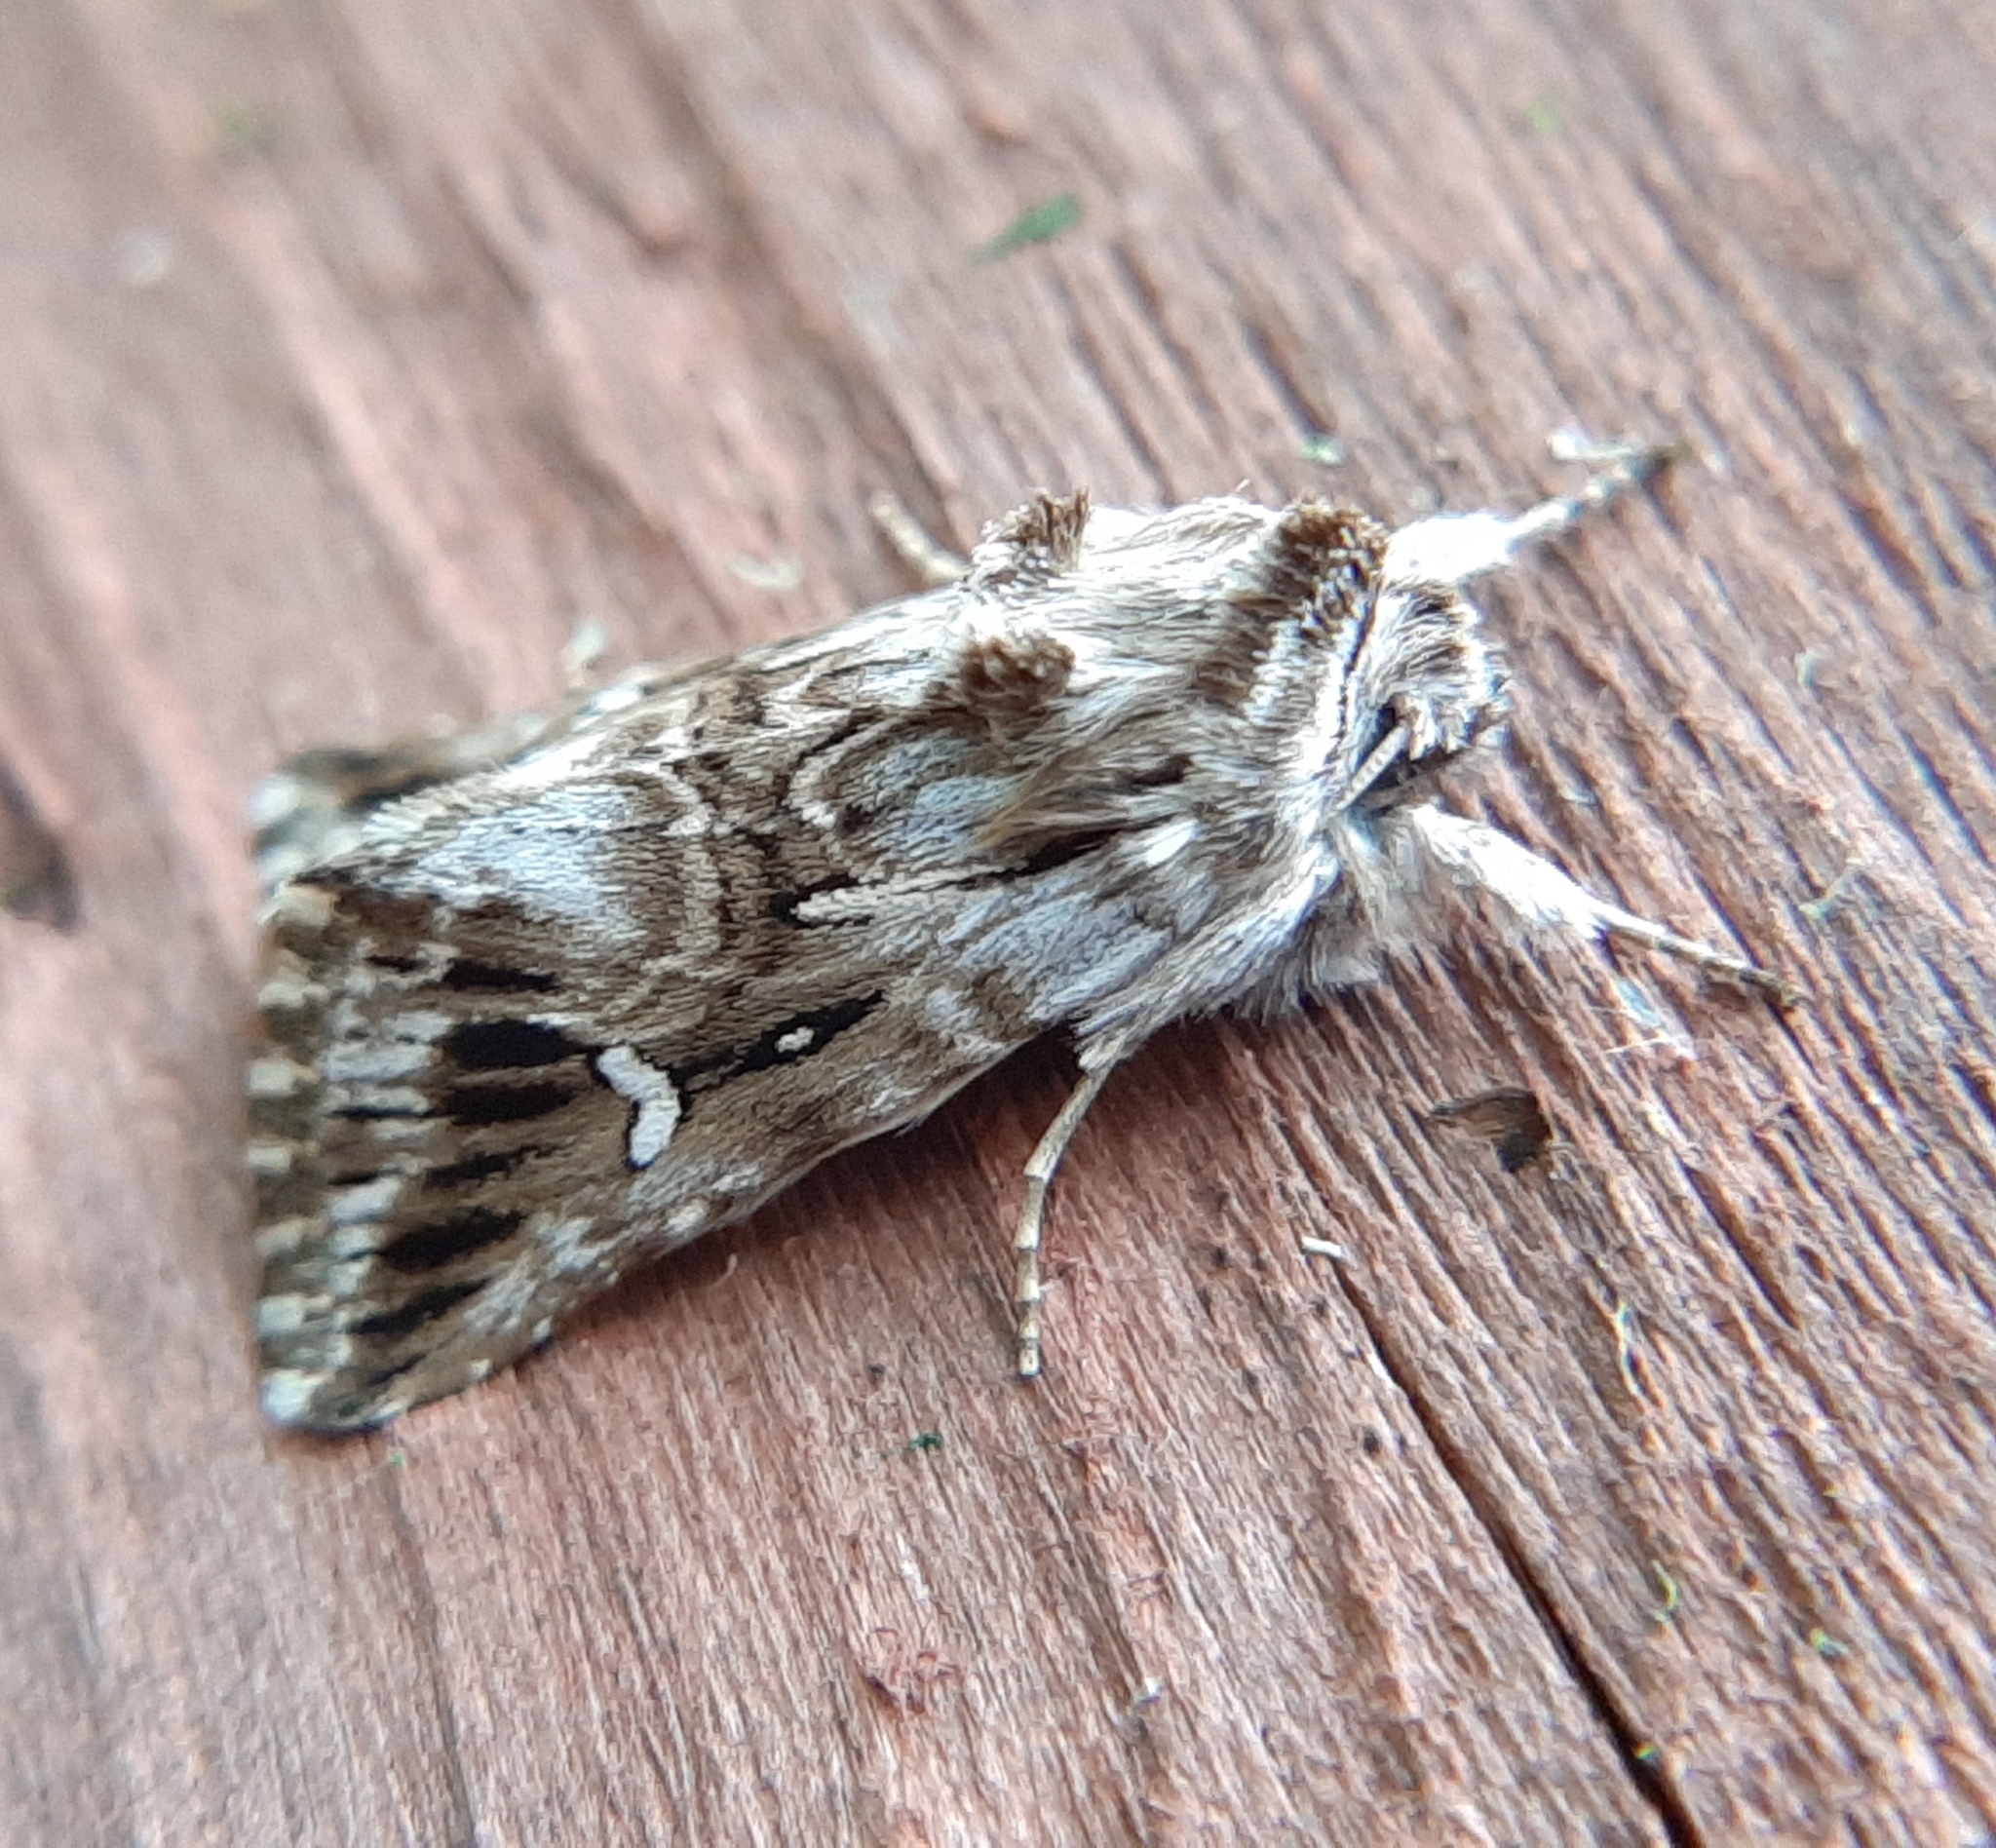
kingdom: Animalia
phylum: Arthropoda
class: Insecta
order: Lepidoptera
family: Noctuidae
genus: Calophasia
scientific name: Calophasia lunula
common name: Toadflax brocade
